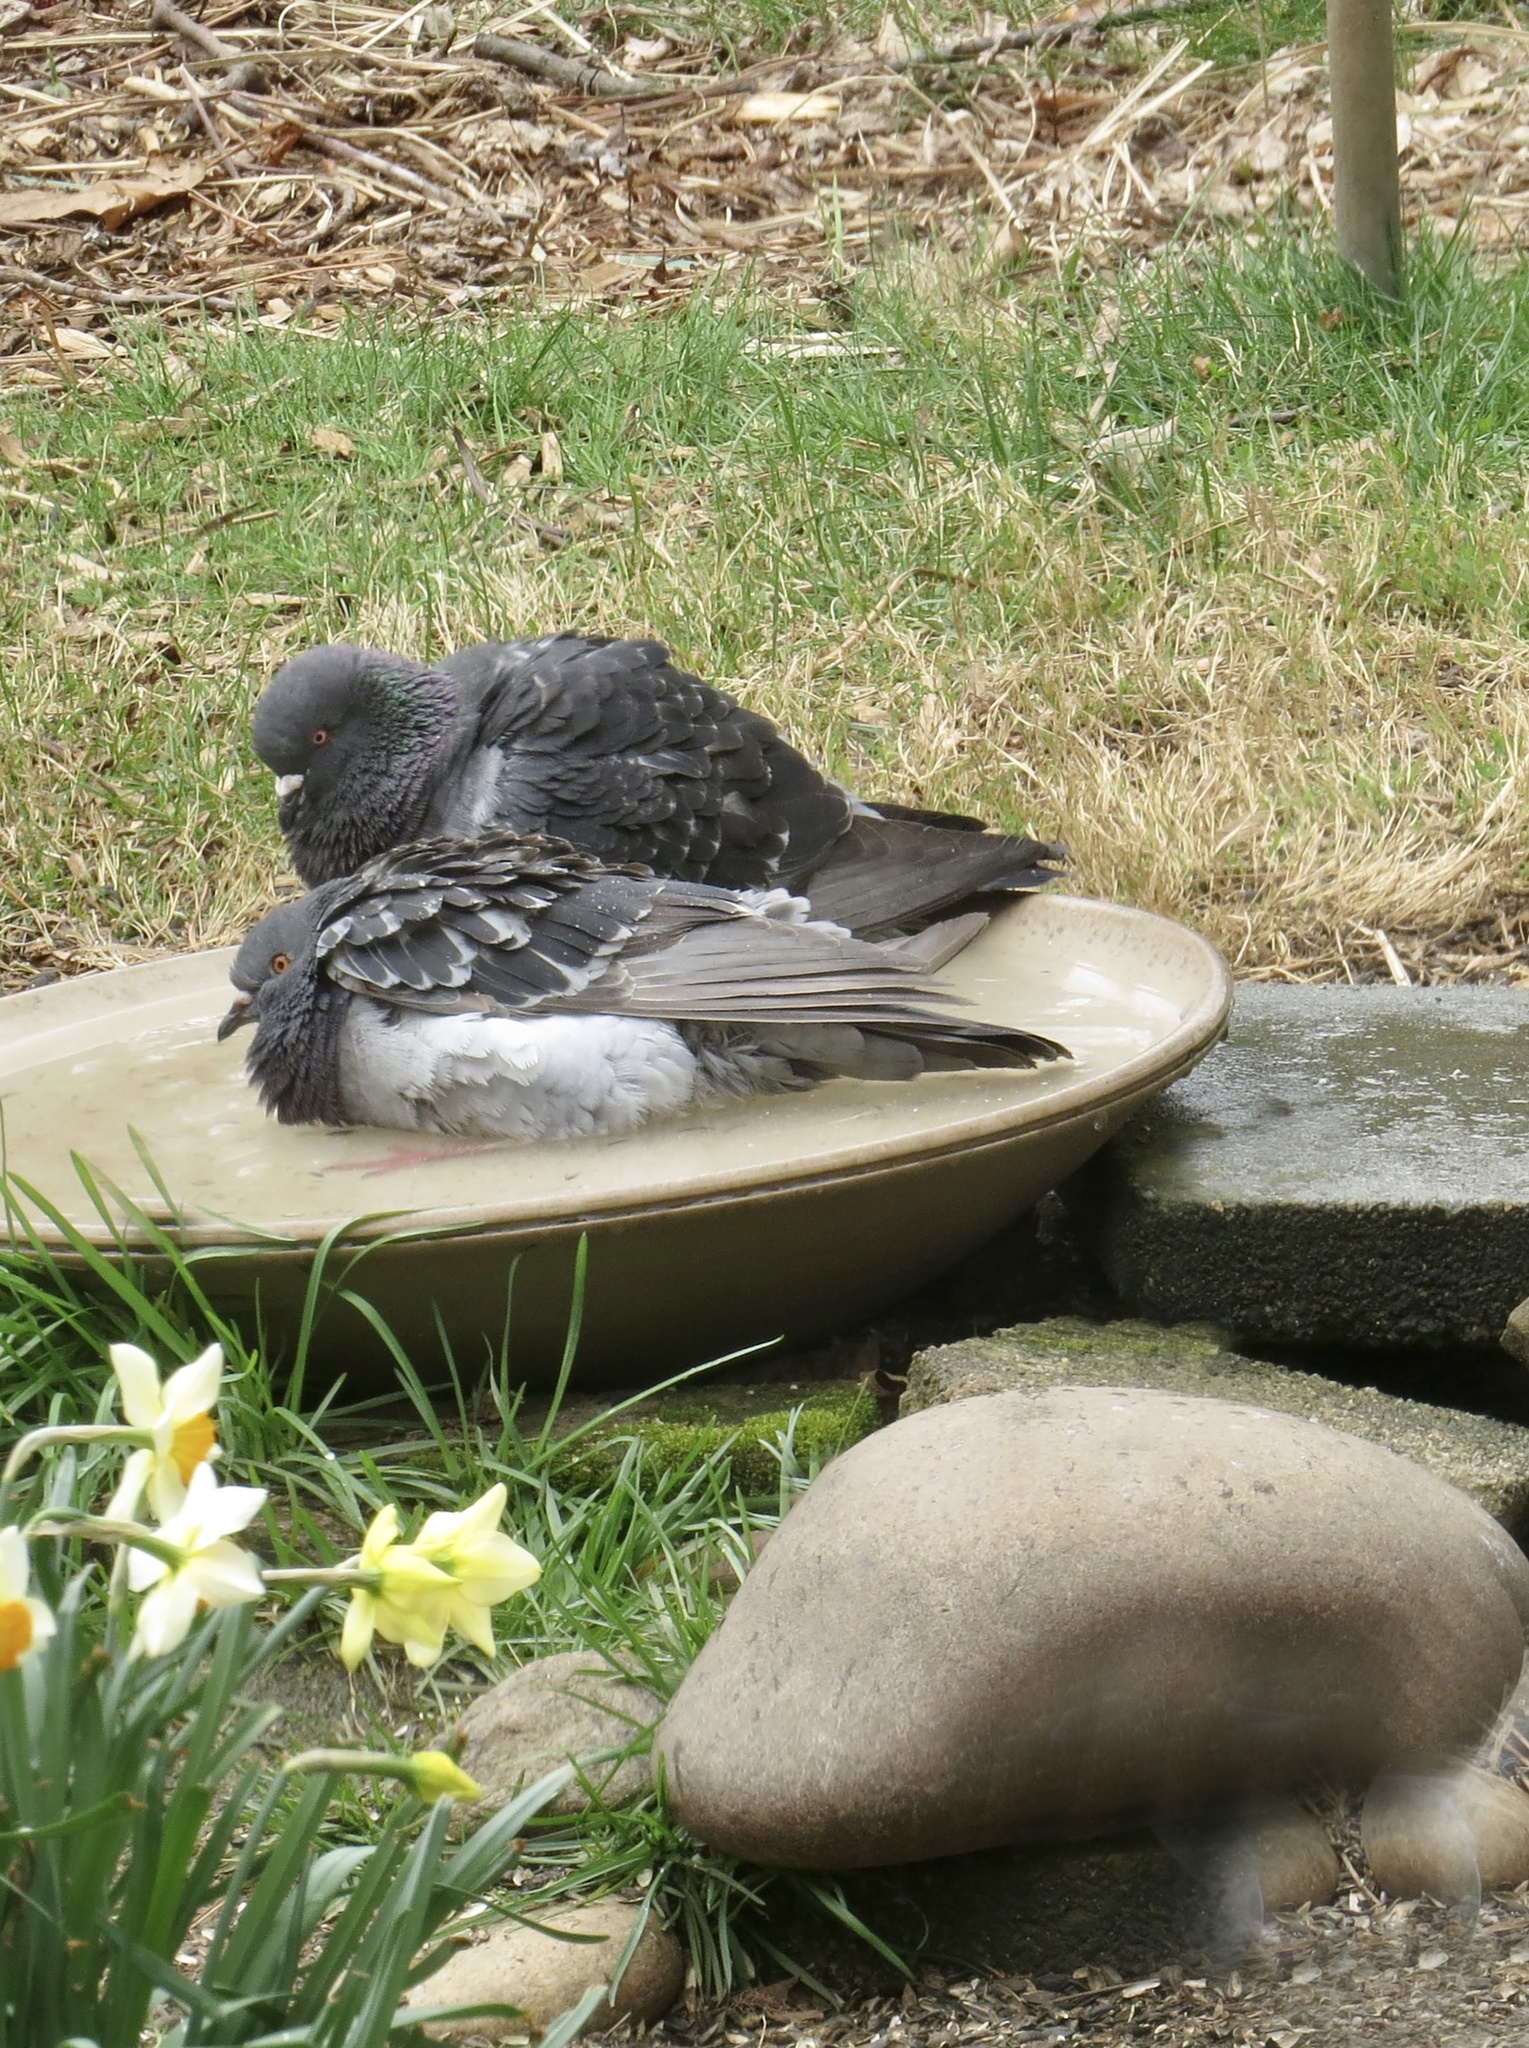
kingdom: Animalia
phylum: Chordata
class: Aves
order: Columbiformes
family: Columbidae
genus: Columba
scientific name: Columba livia
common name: Rock pigeon
